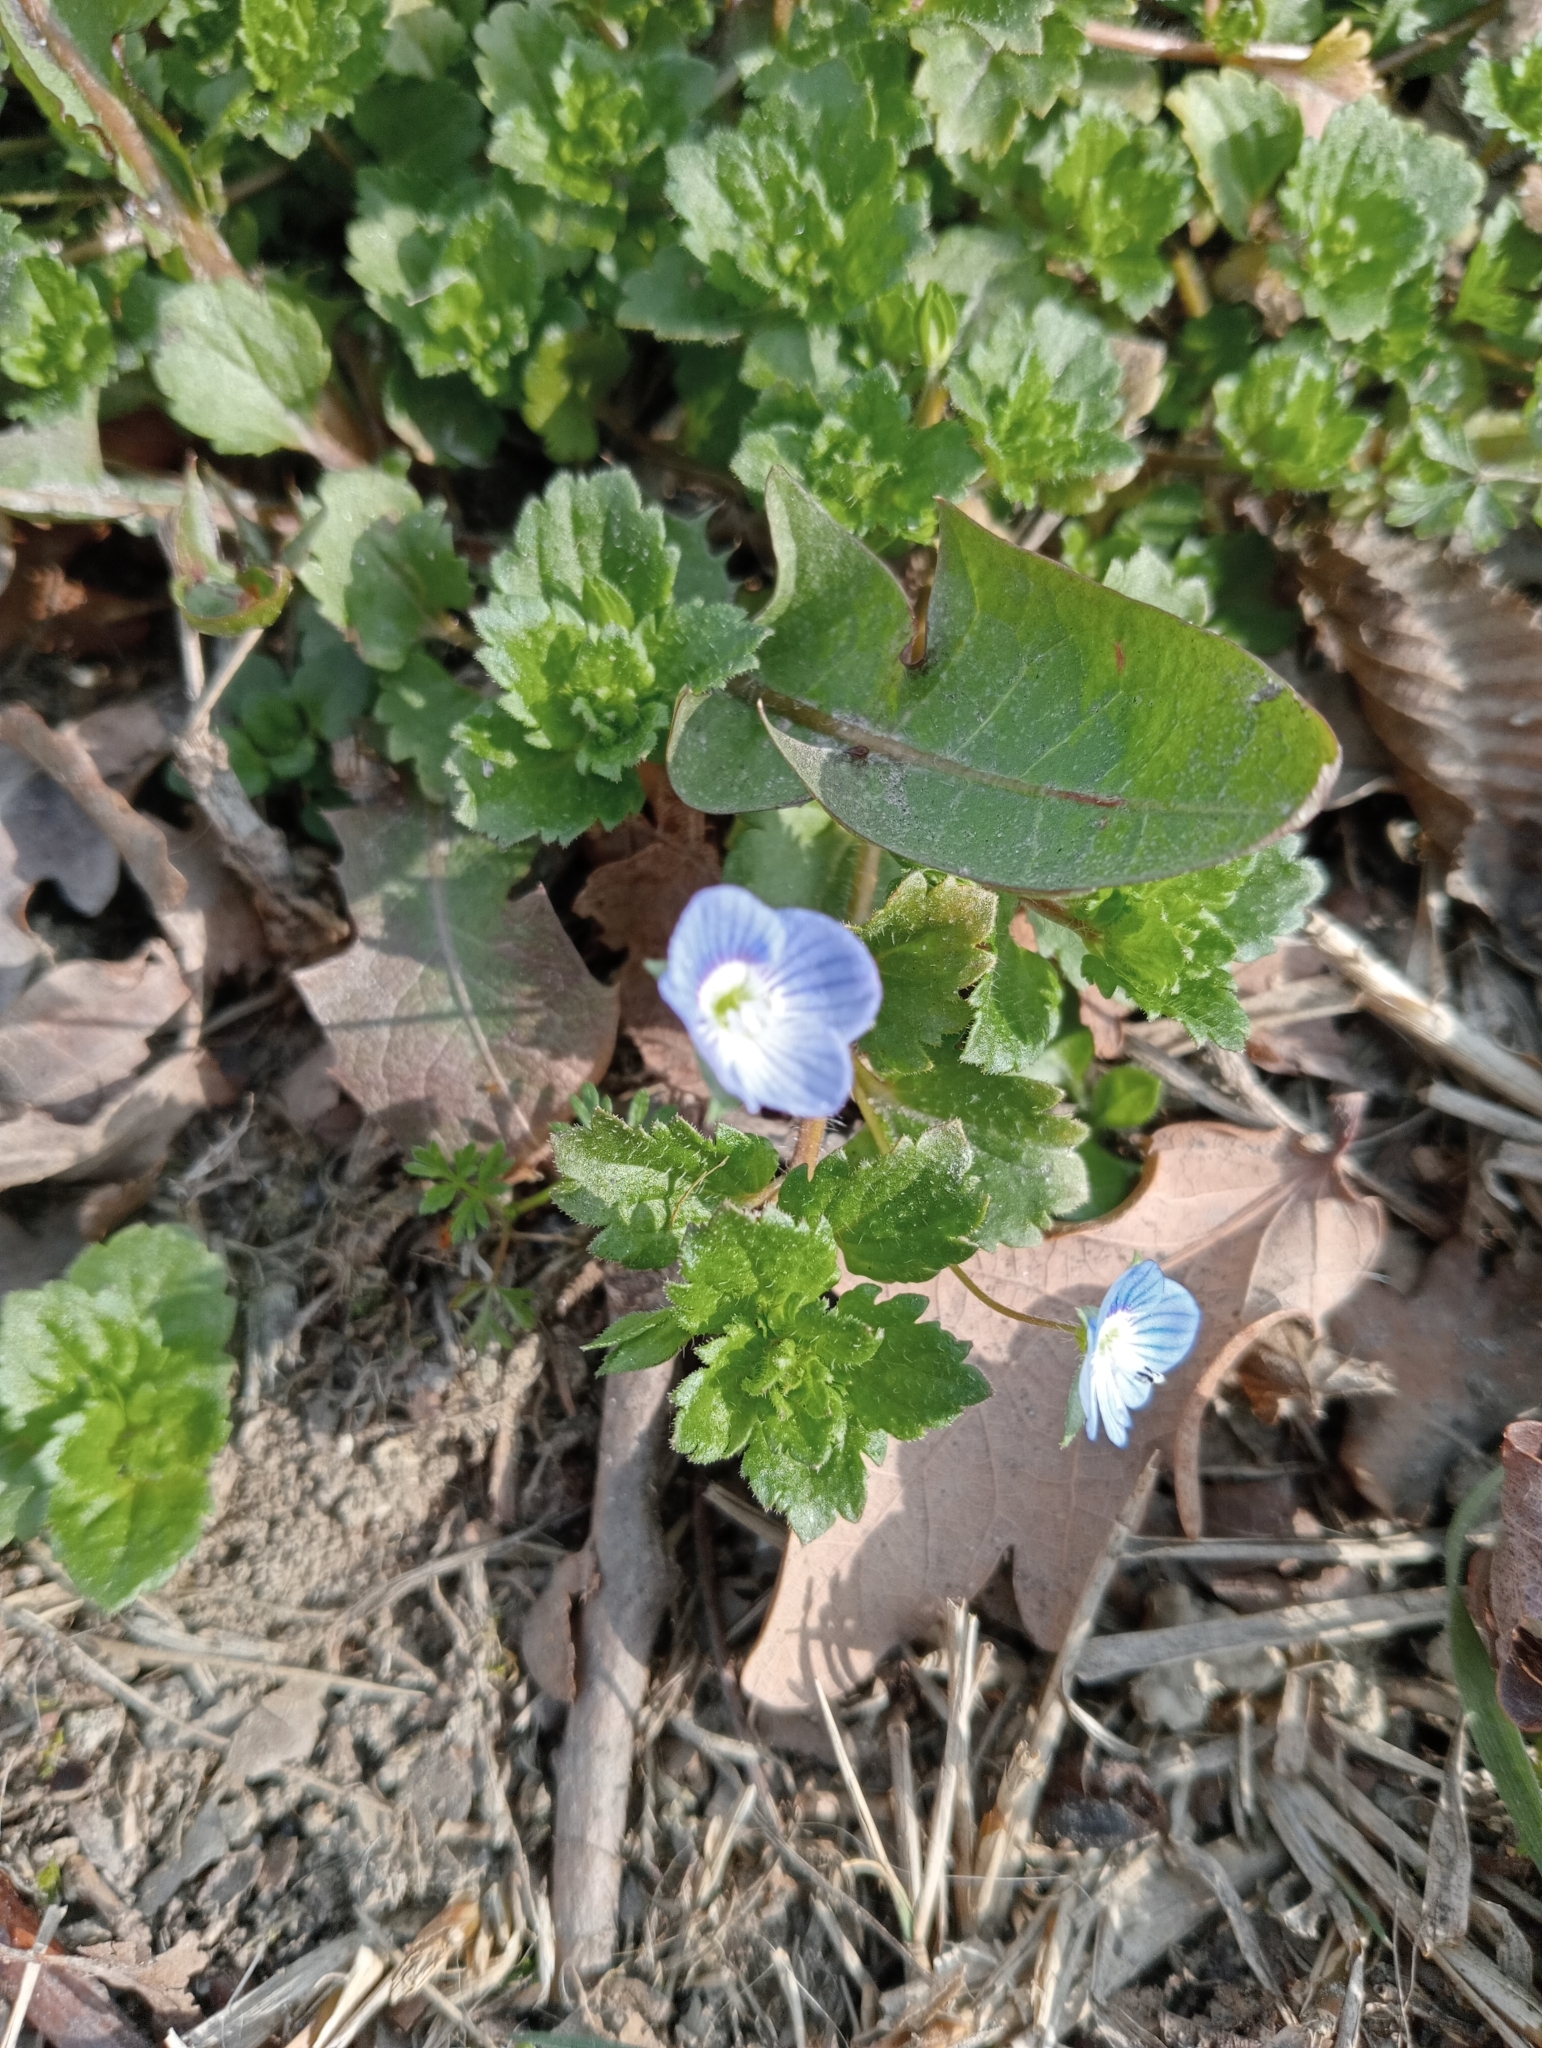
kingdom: Plantae
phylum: Tracheophyta
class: Magnoliopsida
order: Lamiales
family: Plantaginaceae
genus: Veronica
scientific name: Veronica persica
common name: Common field-speedwell
